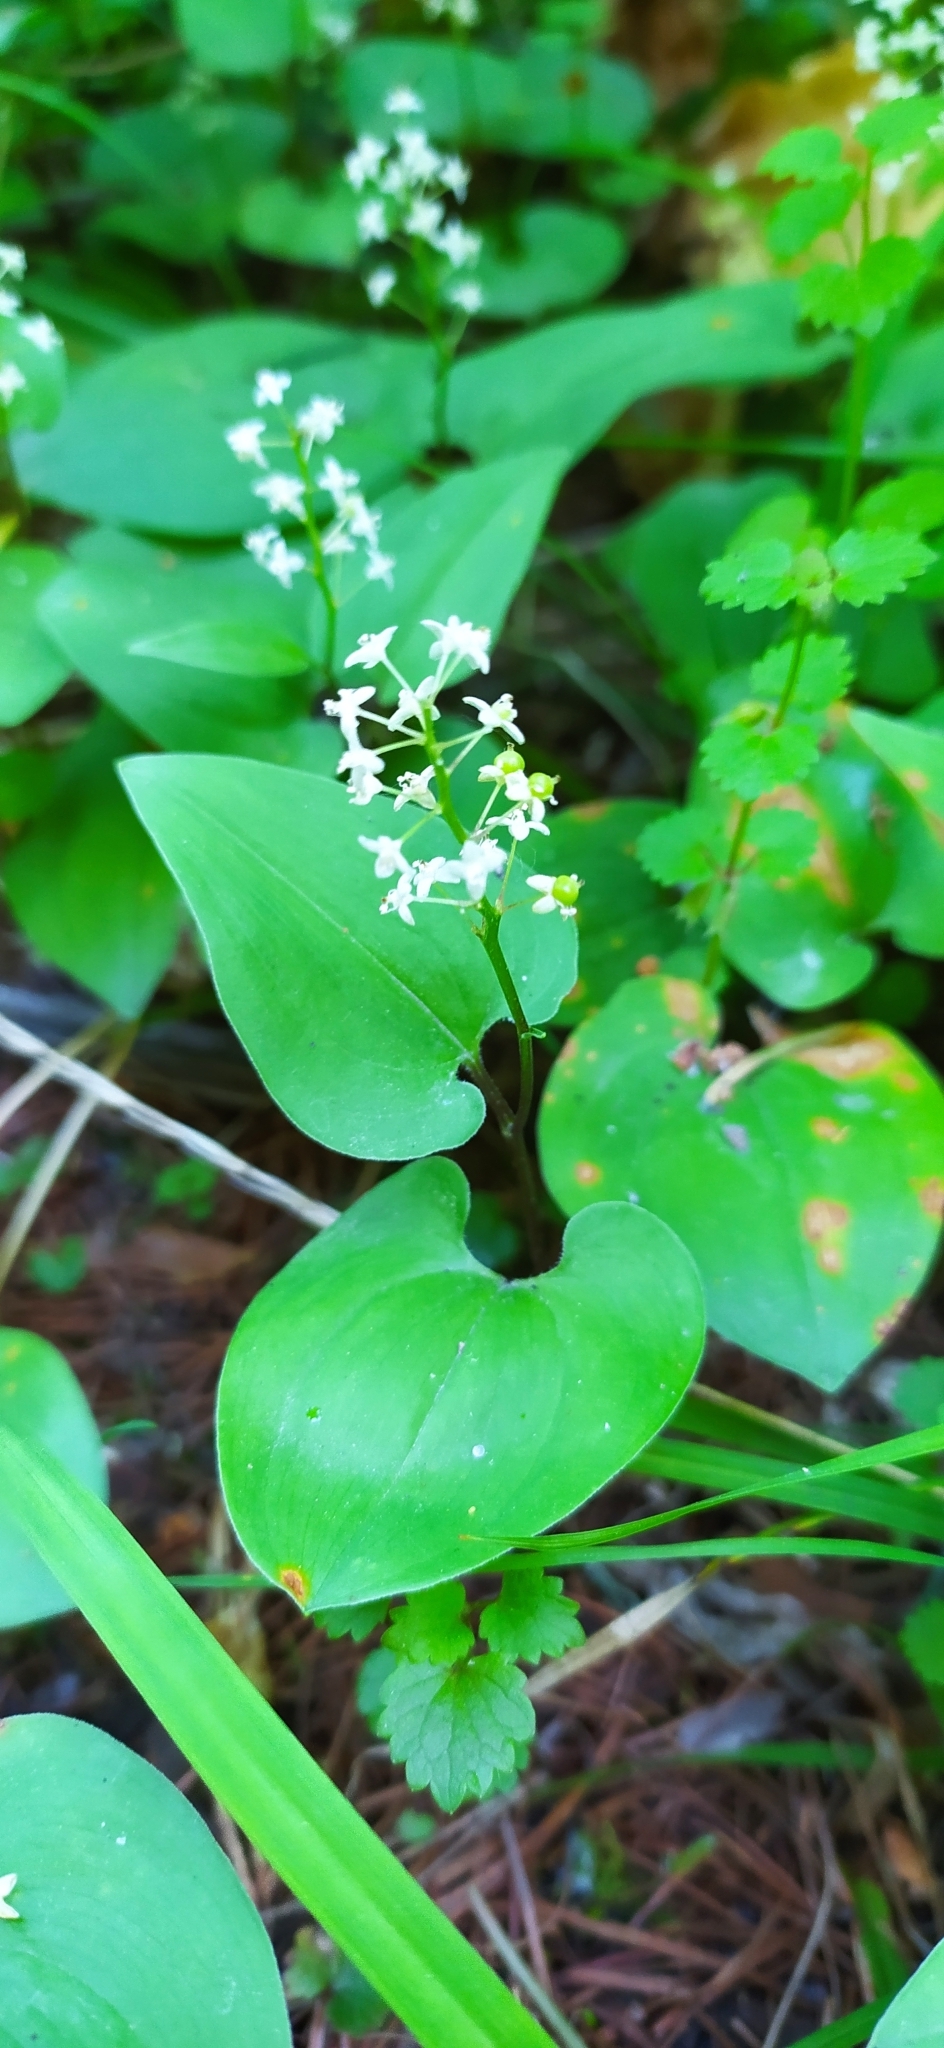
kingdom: Plantae
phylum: Tracheophyta
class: Liliopsida
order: Asparagales
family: Asparagaceae
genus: Maianthemum
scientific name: Maianthemum bifolium
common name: May lily
